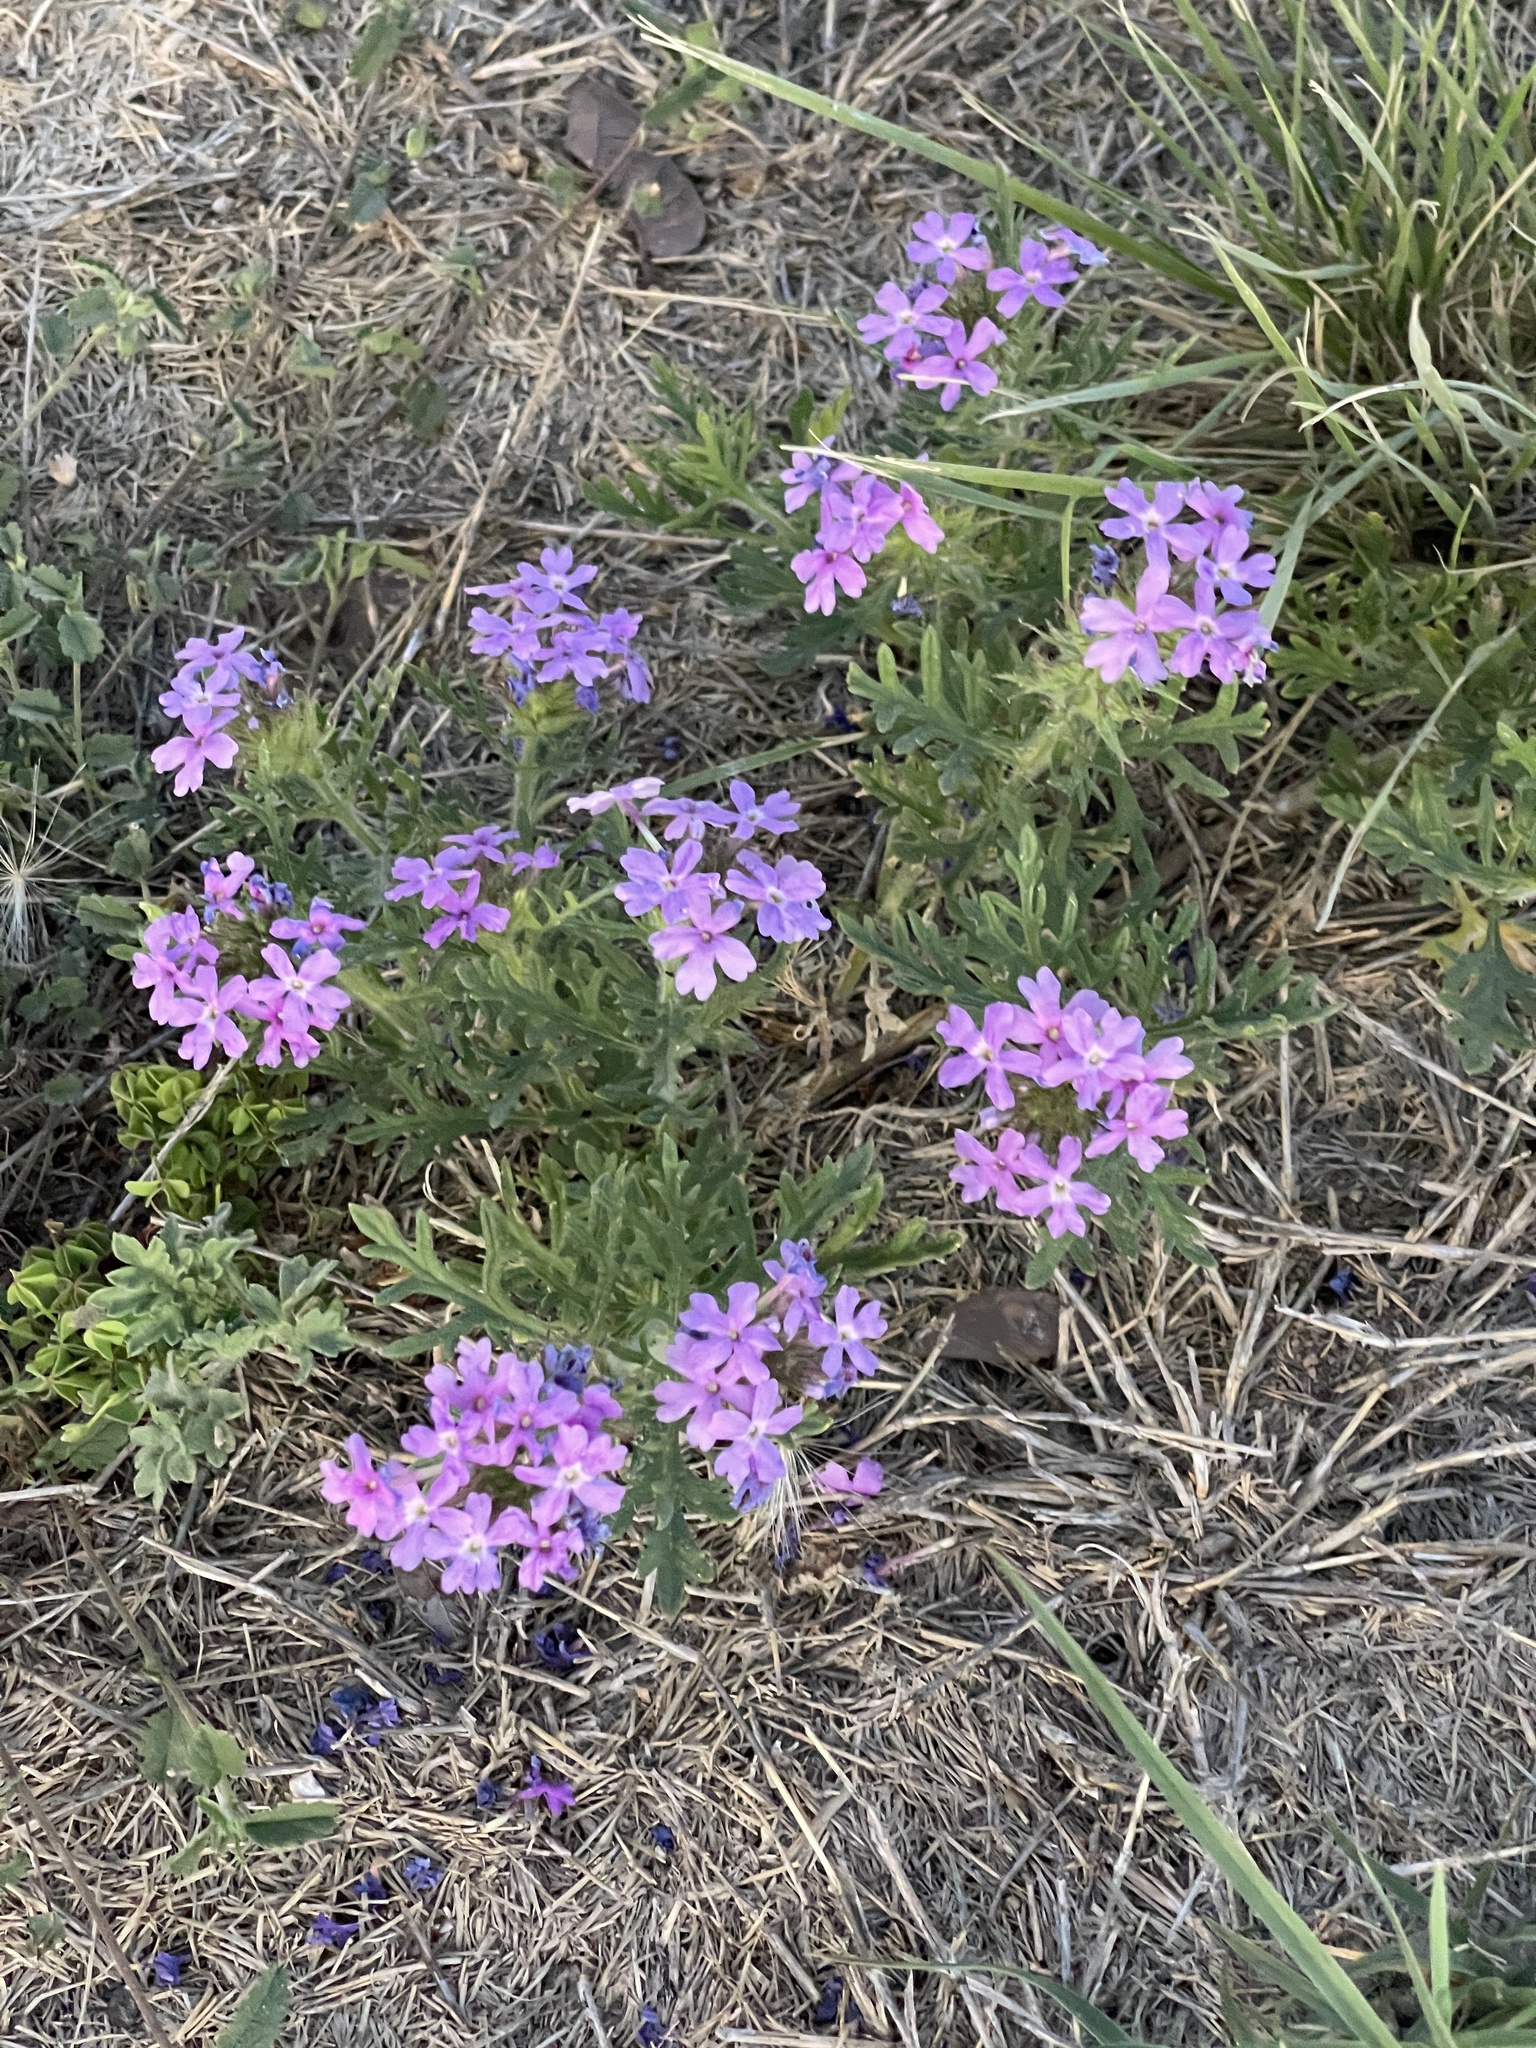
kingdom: Plantae
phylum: Tracheophyta
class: Magnoliopsida
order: Lamiales
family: Verbenaceae
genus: Verbena
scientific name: Verbena bipinnatifida
